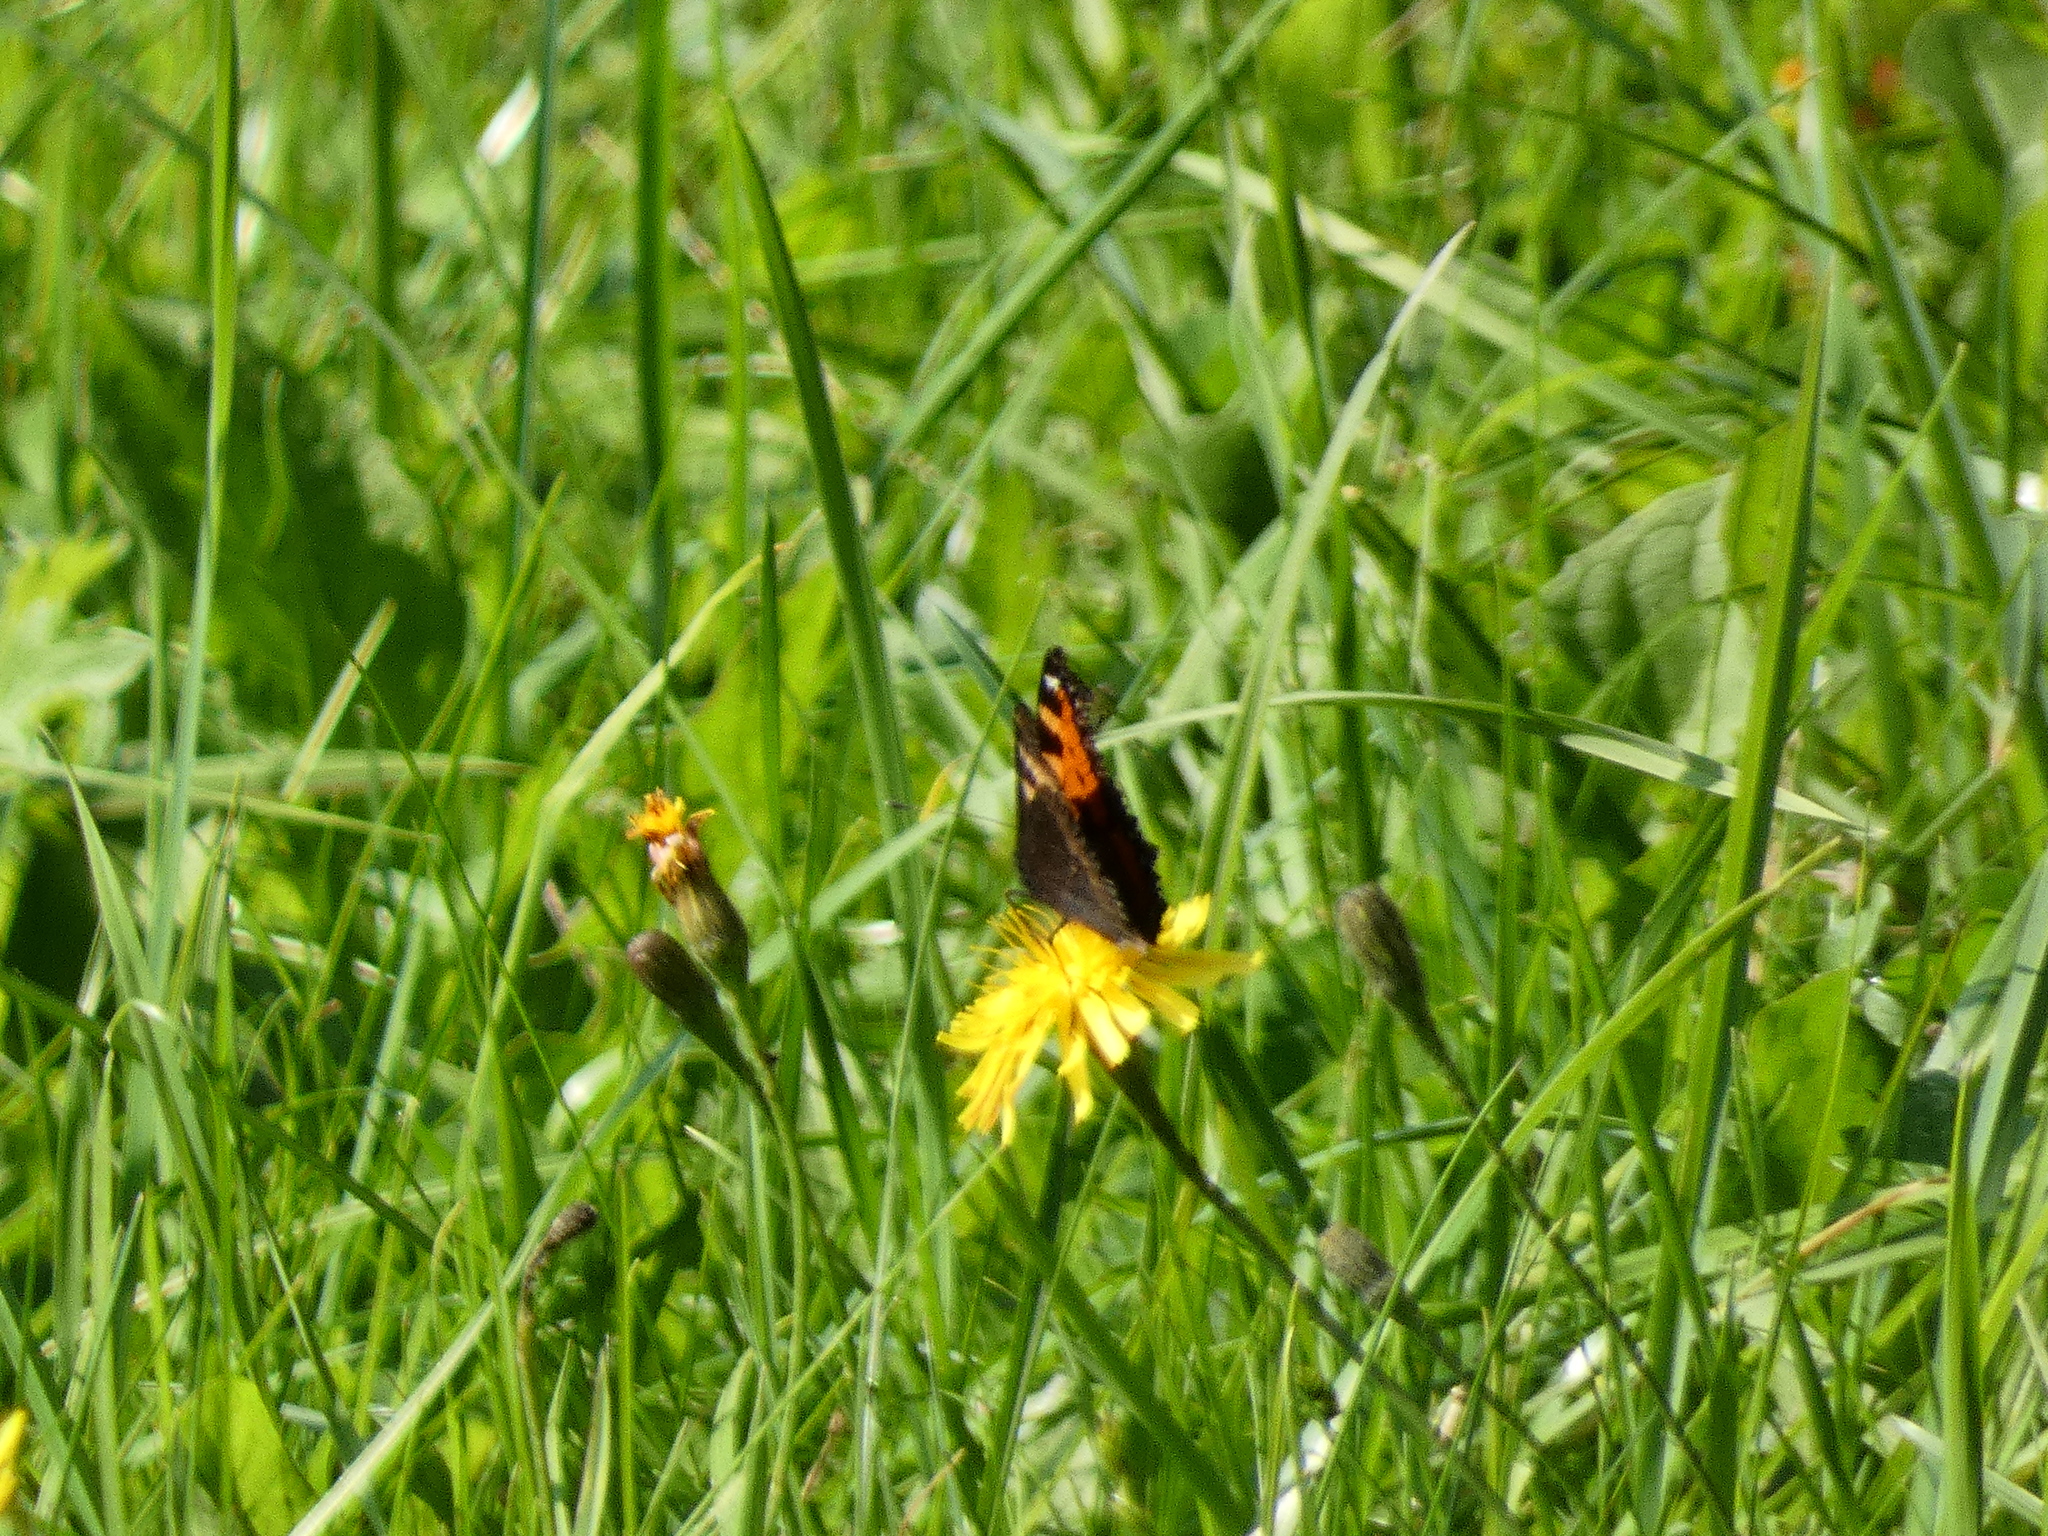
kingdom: Animalia
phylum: Arthropoda
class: Insecta
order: Lepidoptera
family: Nymphalidae
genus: Aglais
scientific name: Aglais urticae
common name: Small tortoiseshell
